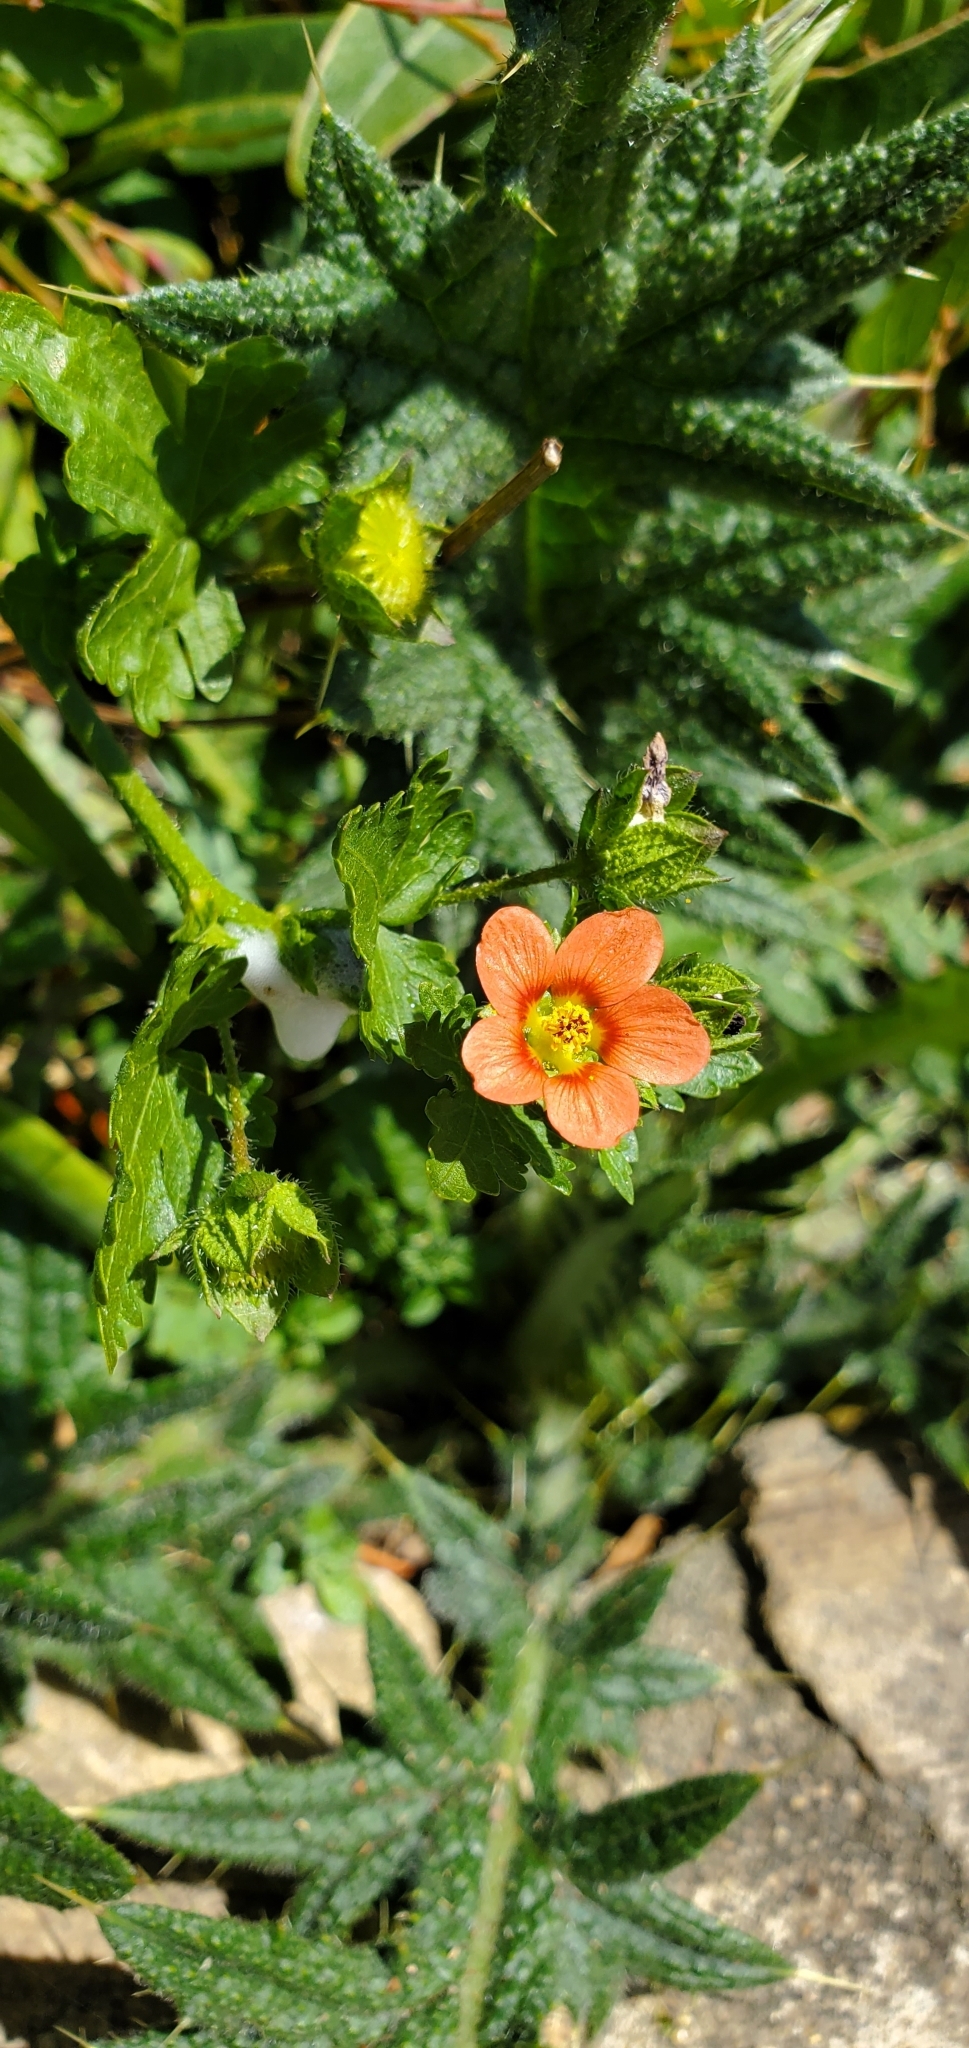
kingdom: Plantae
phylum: Tracheophyta
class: Magnoliopsida
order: Malvales
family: Malvaceae
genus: Modiola
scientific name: Modiola caroliniana
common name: Carolina bristlemallow
